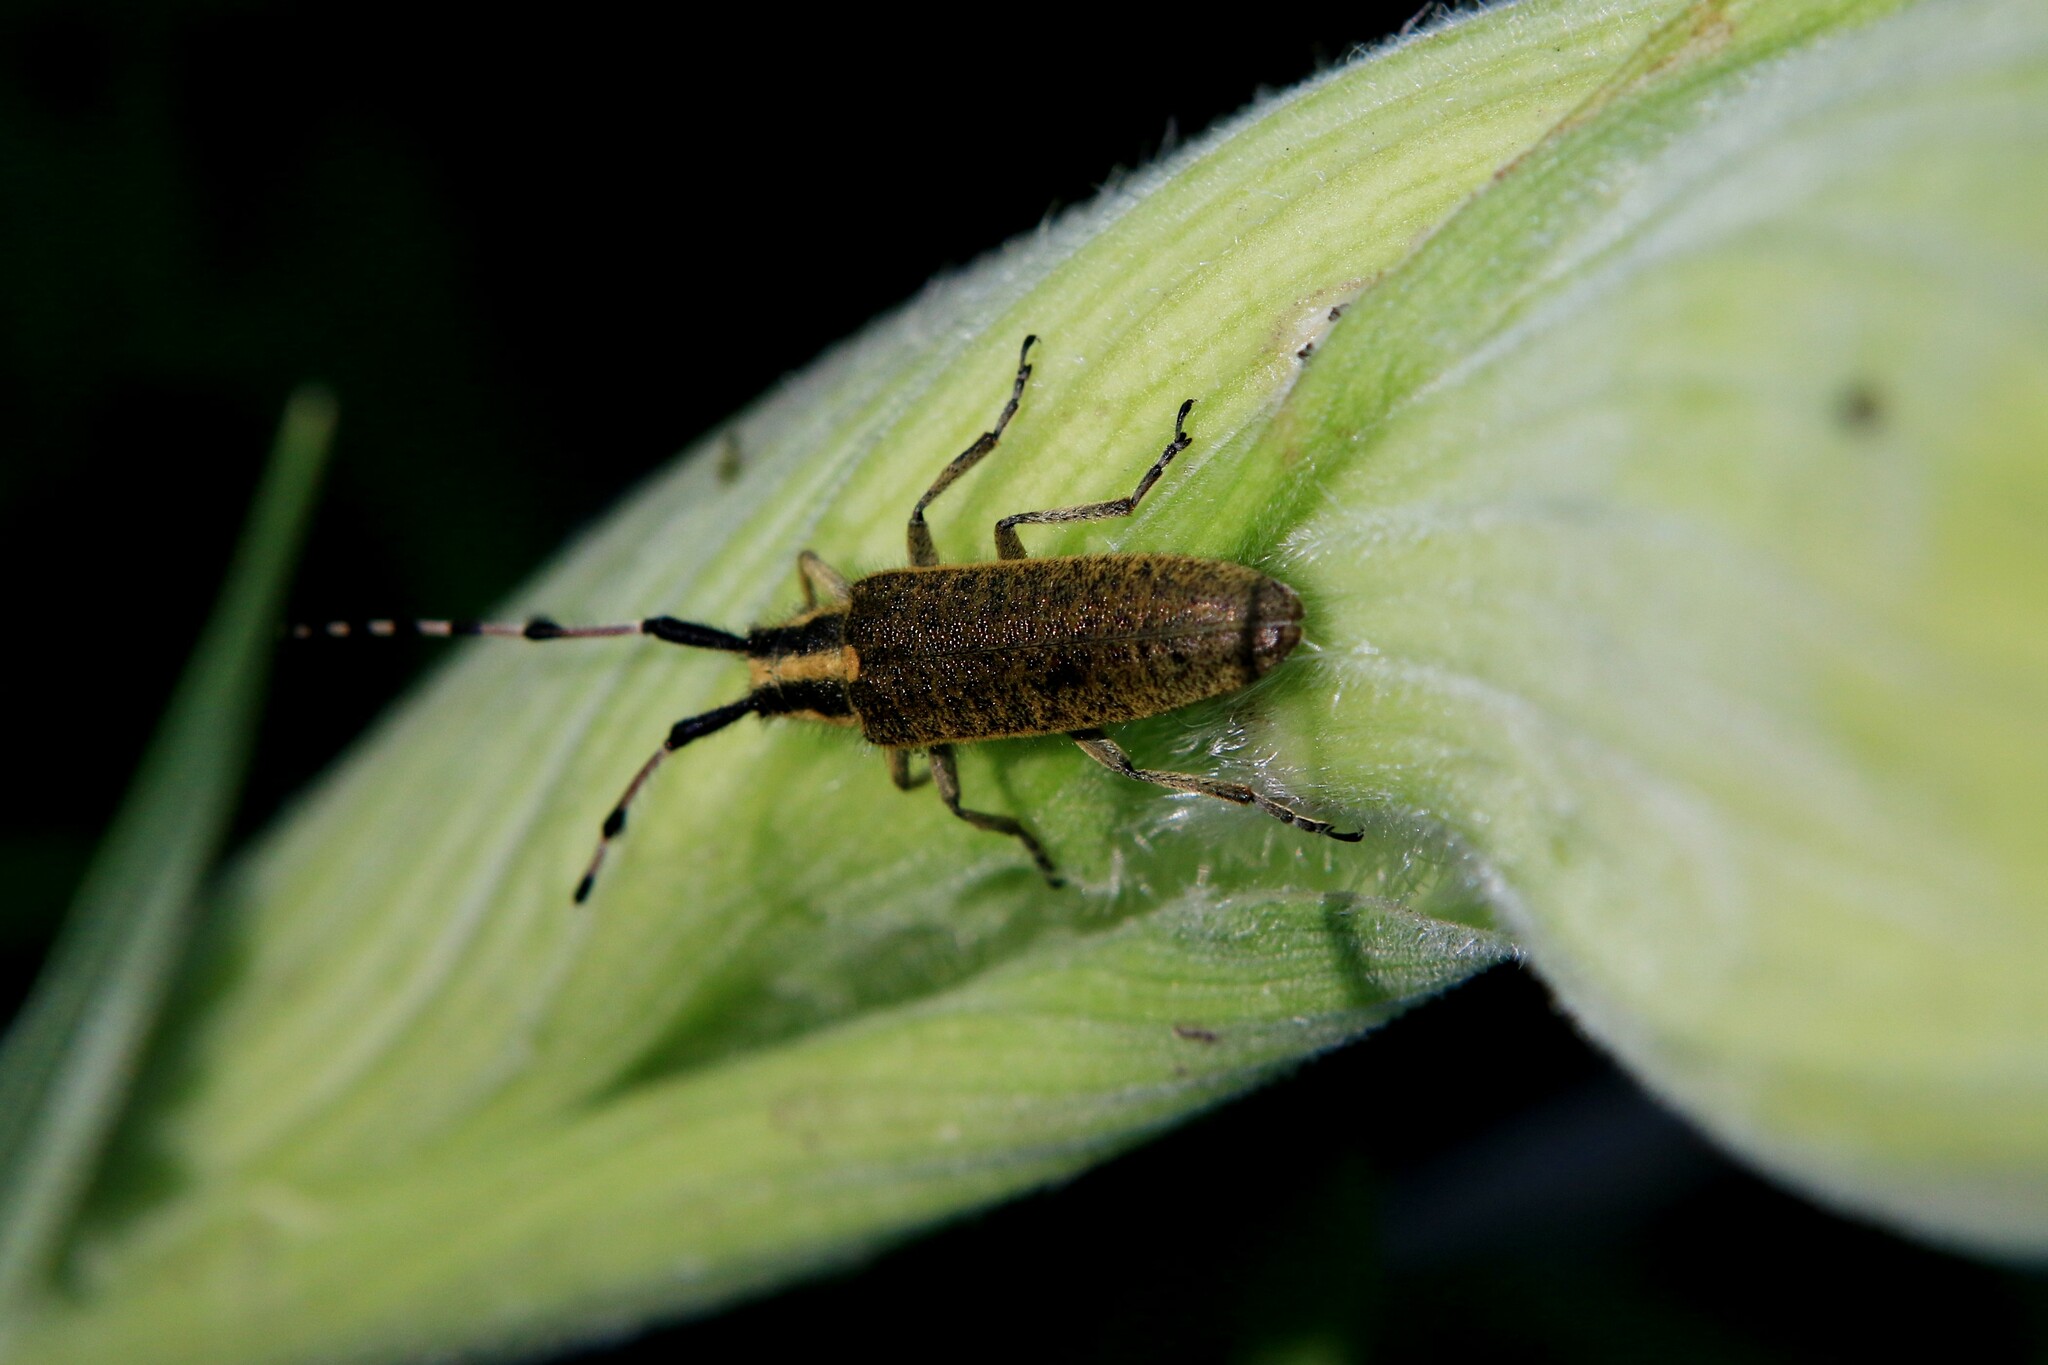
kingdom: Animalia
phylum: Arthropoda
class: Insecta
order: Coleoptera
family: Cerambycidae
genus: Agapanthia
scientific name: Agapanthia dahlii
